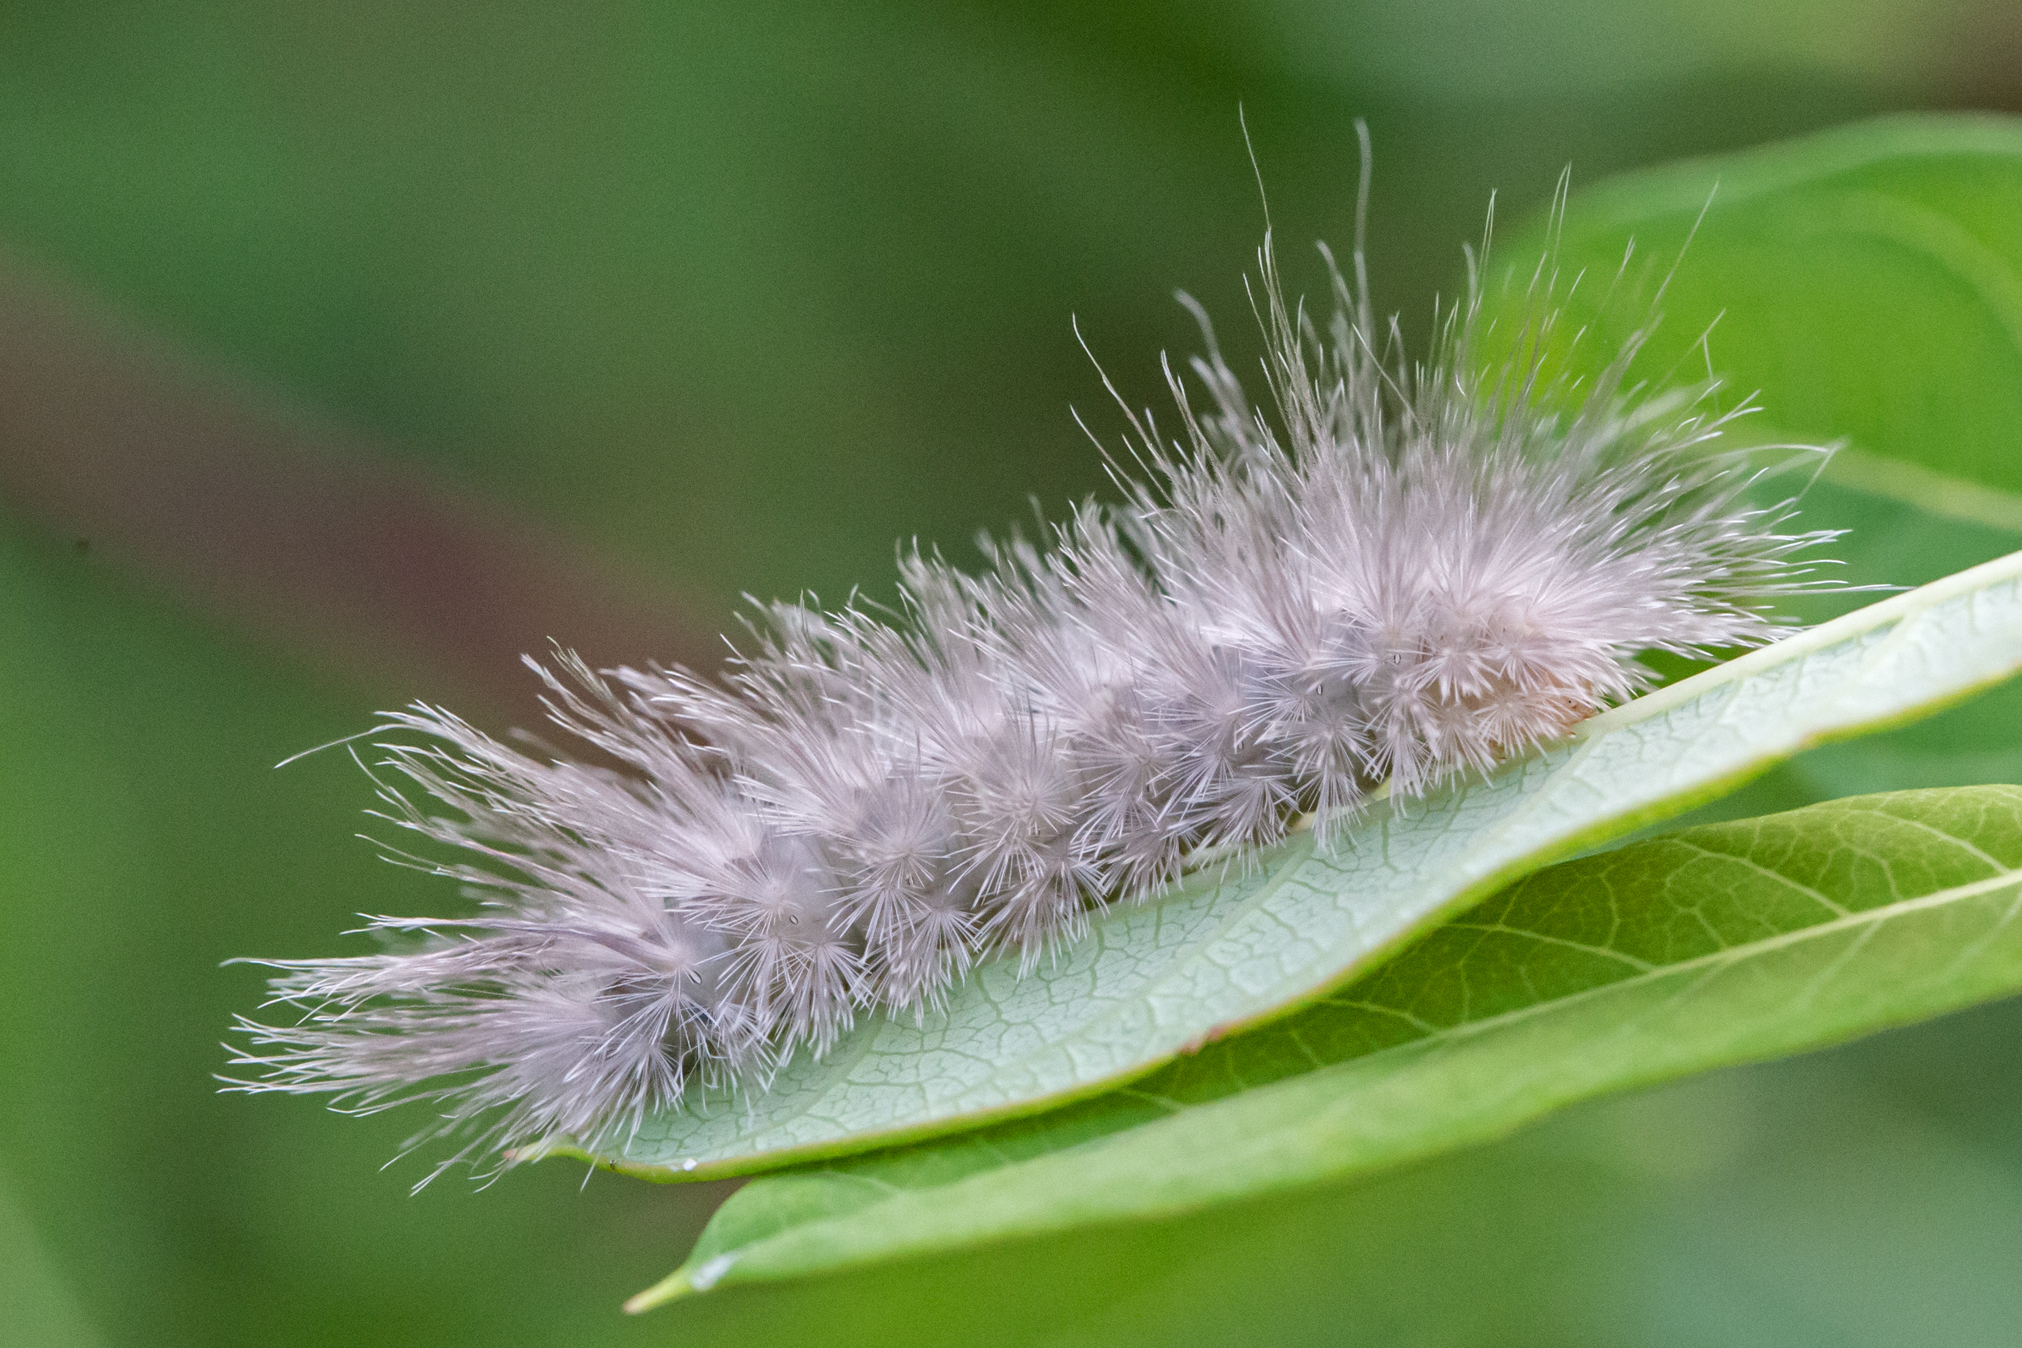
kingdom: Animalia
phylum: Arthropoda
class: Insecta
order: Lepidoptera
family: Erebidae
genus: Cycnia
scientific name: Cycnia tenera
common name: Delicate cycnia moth
